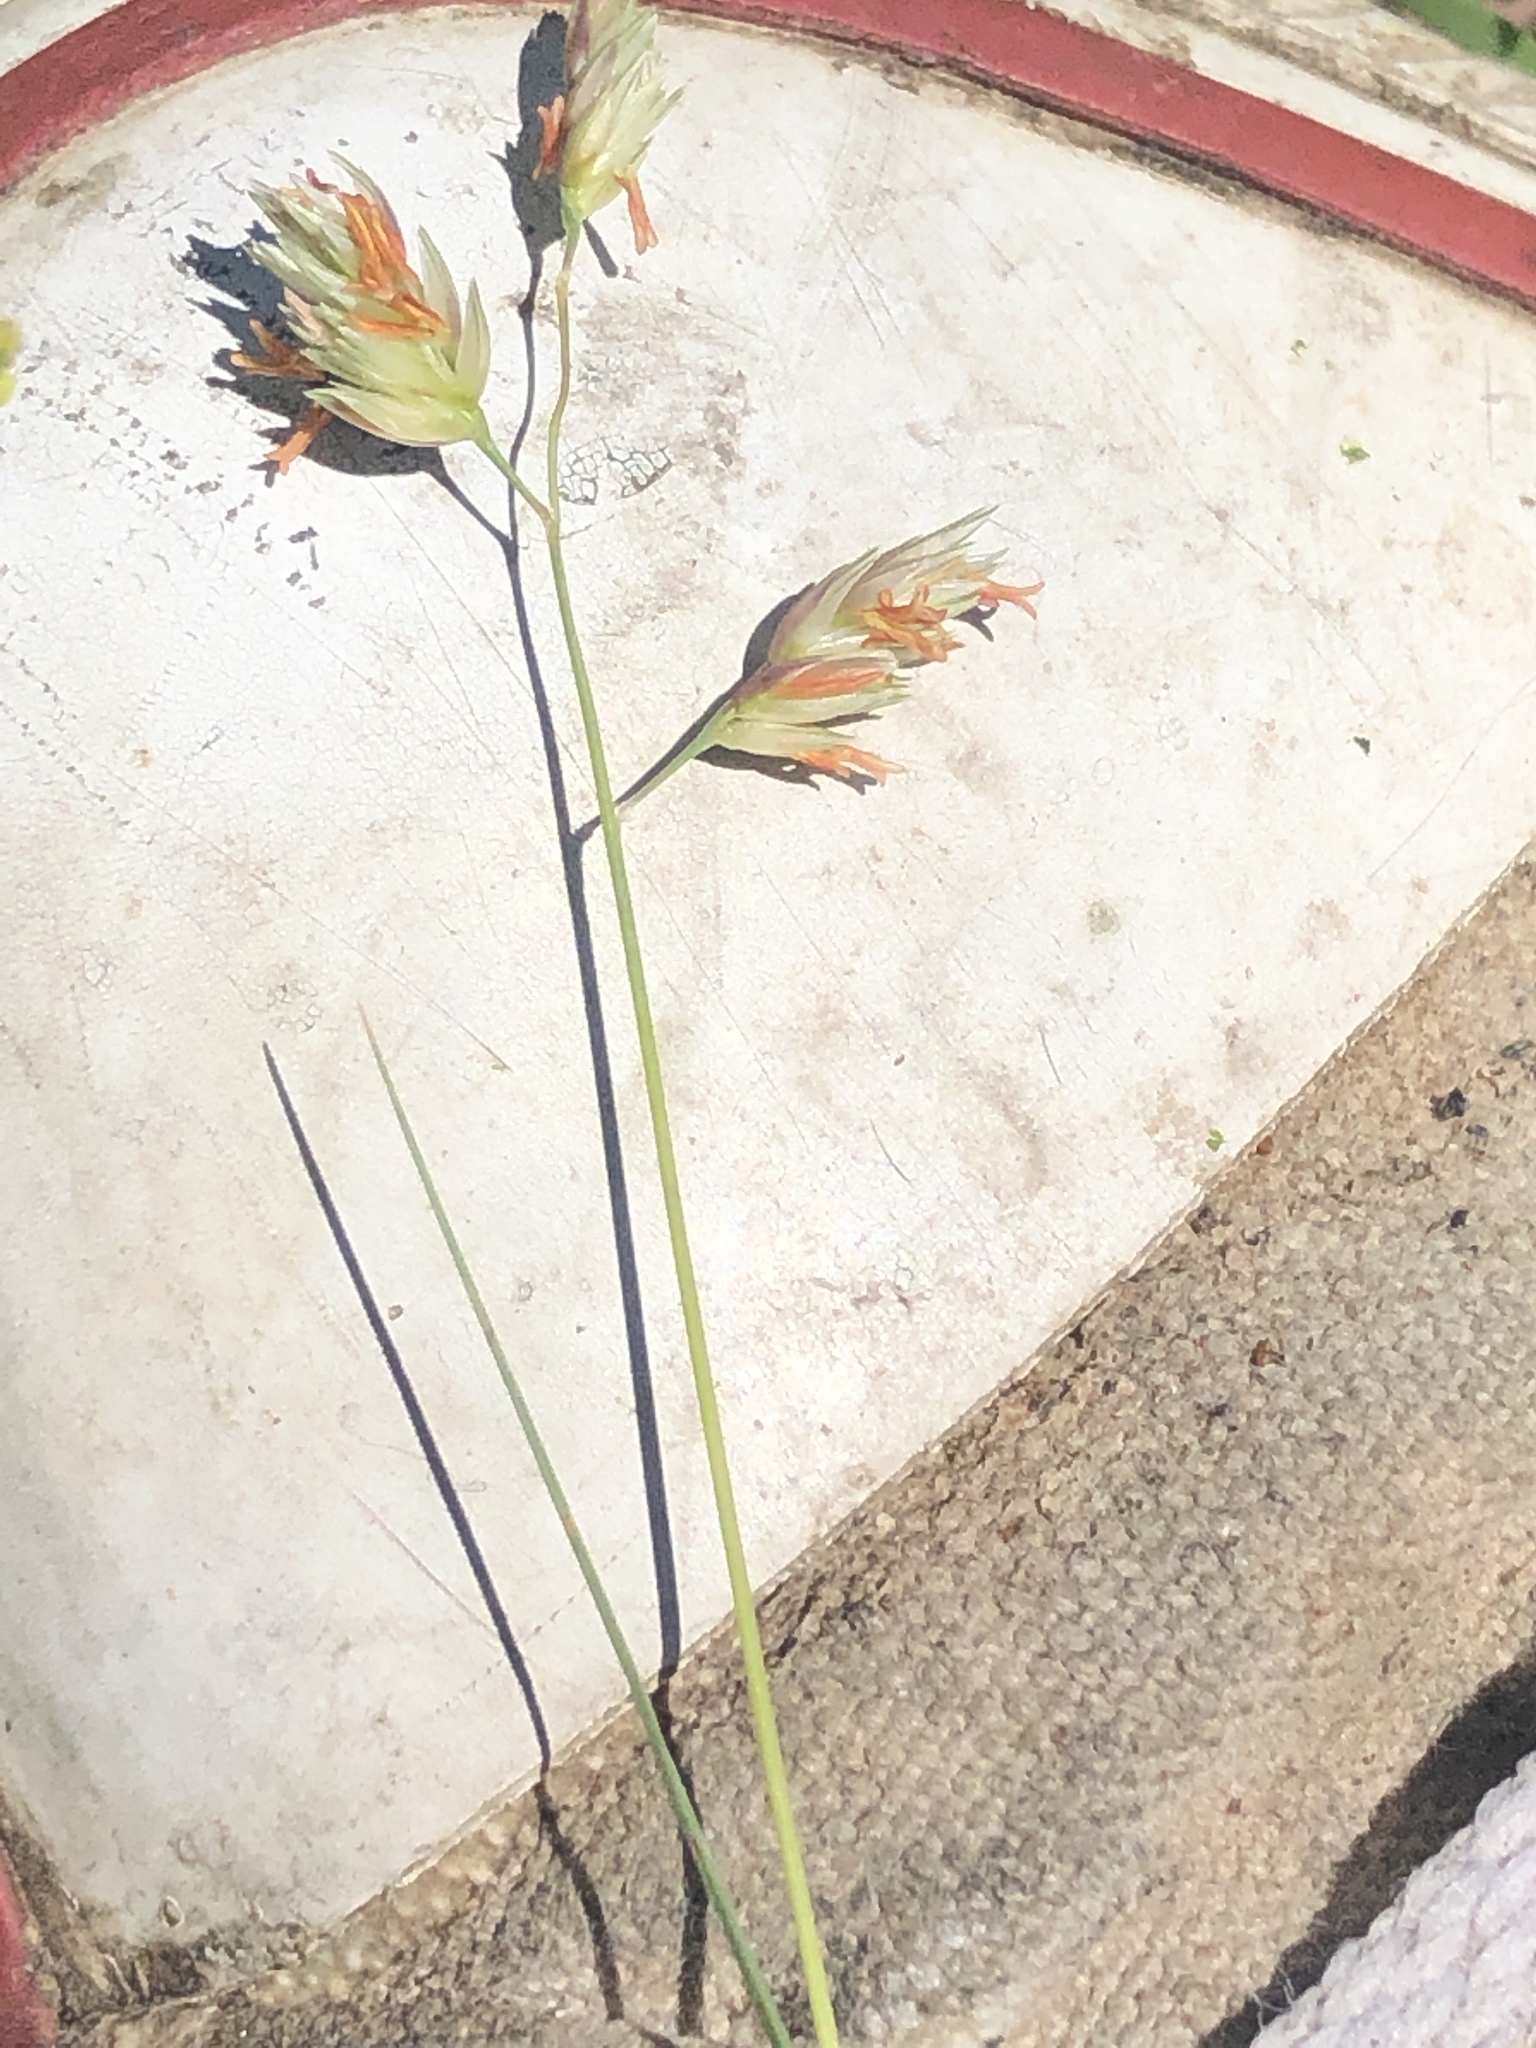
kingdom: Plantae
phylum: Tracheophyta
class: Liliopsida
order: Poales
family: Poaceae
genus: Bouteloua
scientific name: Bouteloua dactyloides
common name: Buffalo grass
